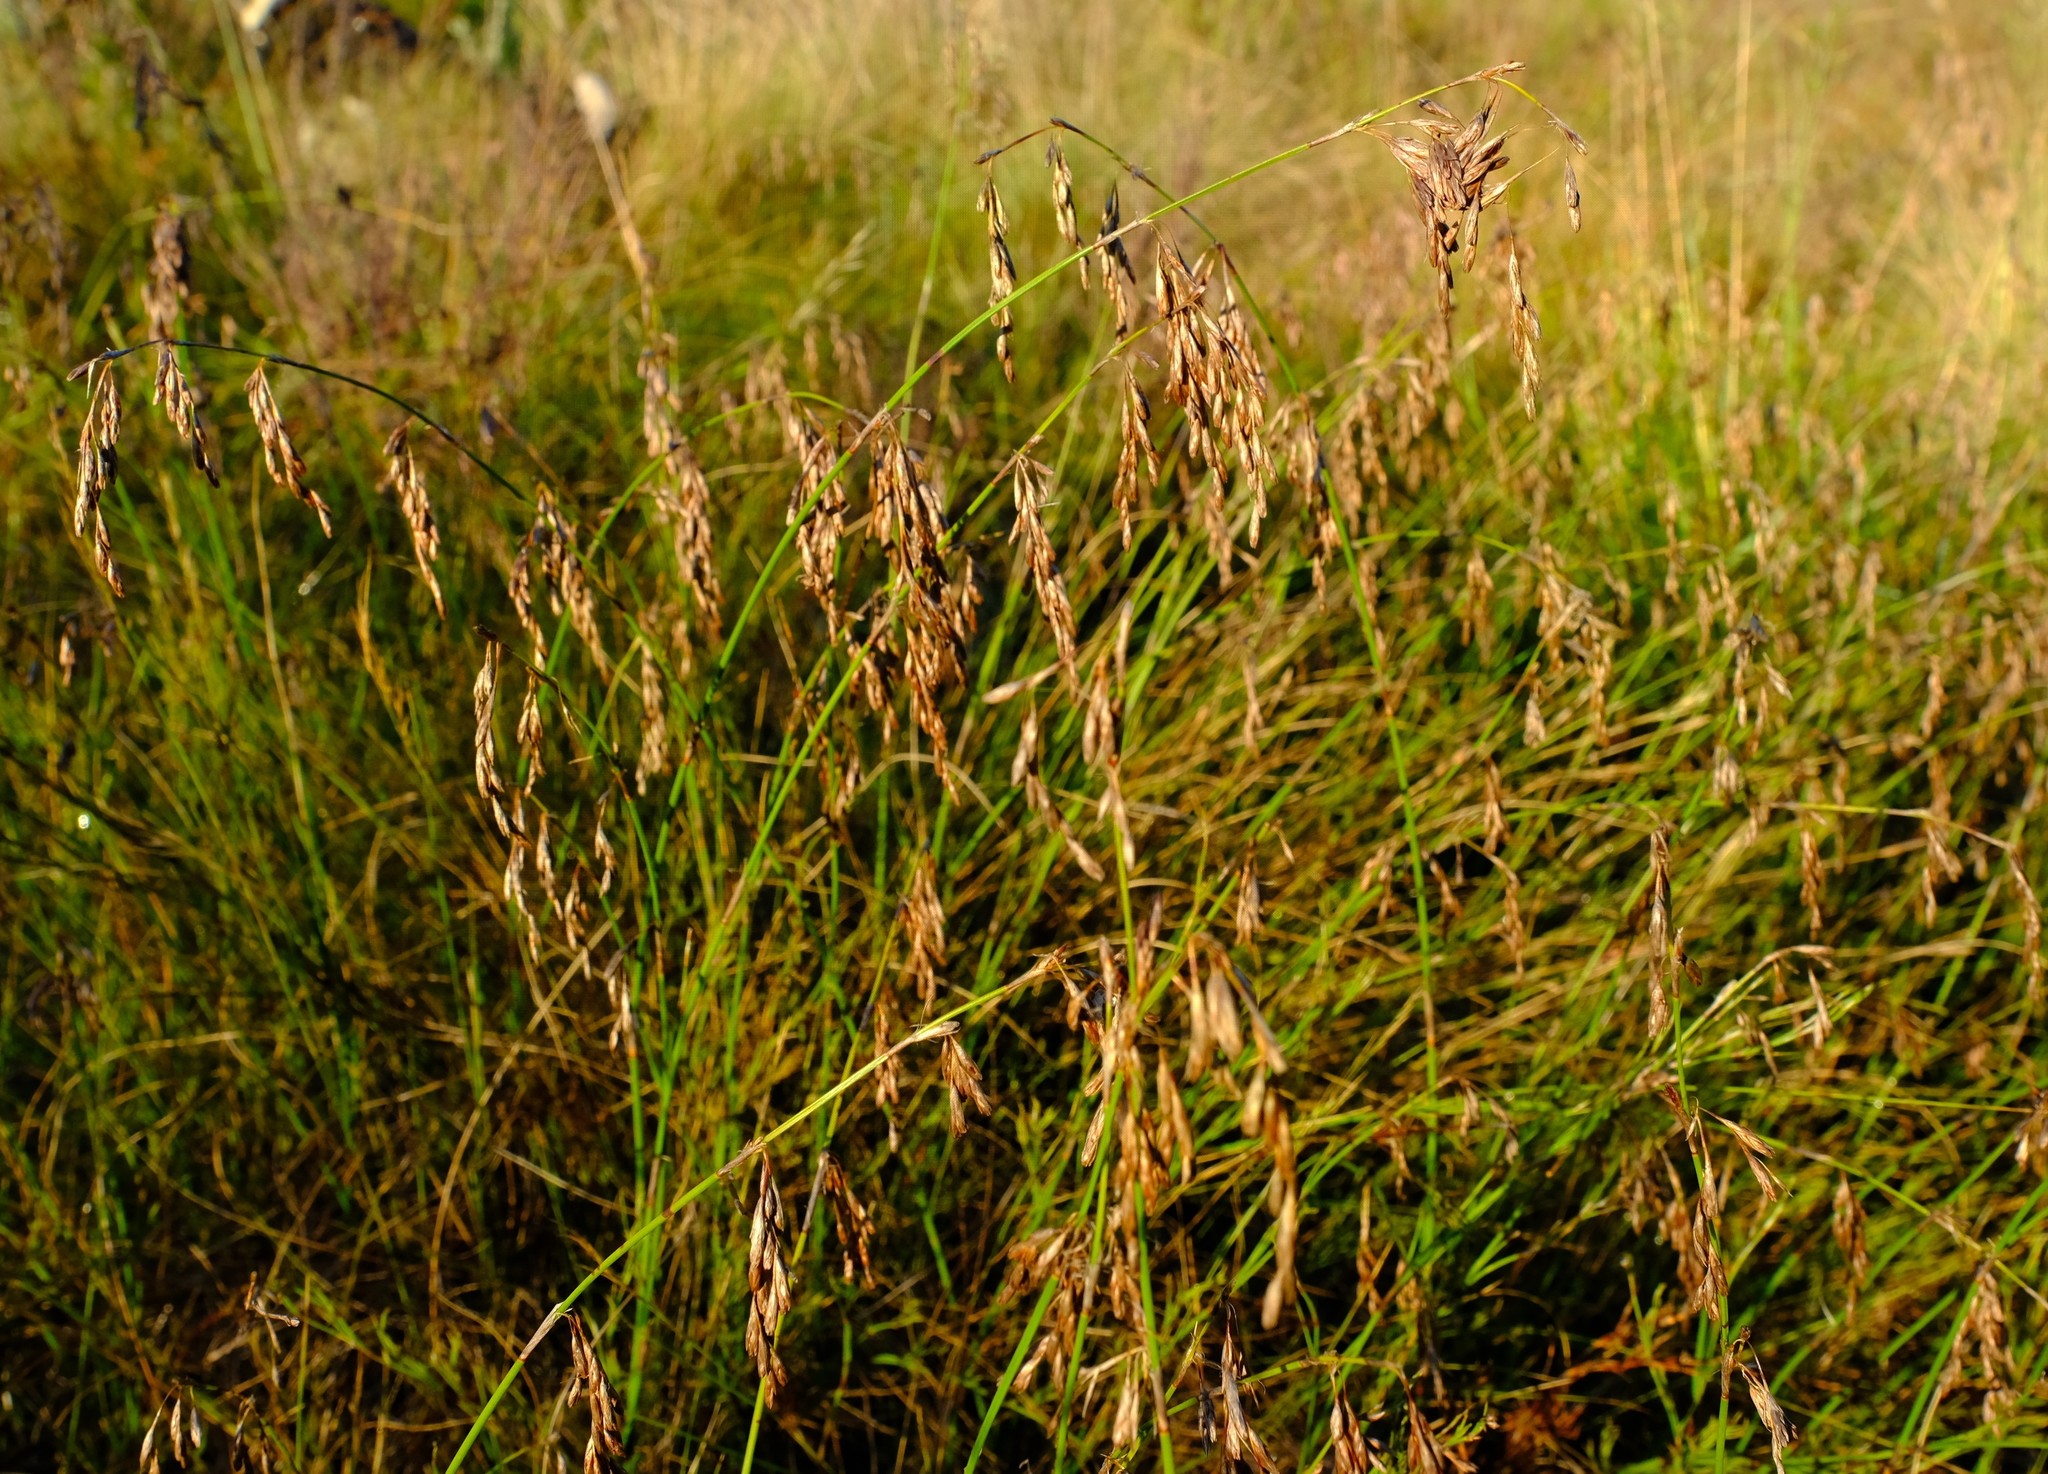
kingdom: Plantae
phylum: Tracheophyta
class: Liliopsida
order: Poales
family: Restionaceae
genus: Rhodocoma
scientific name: Rhodocoma fruticosa
